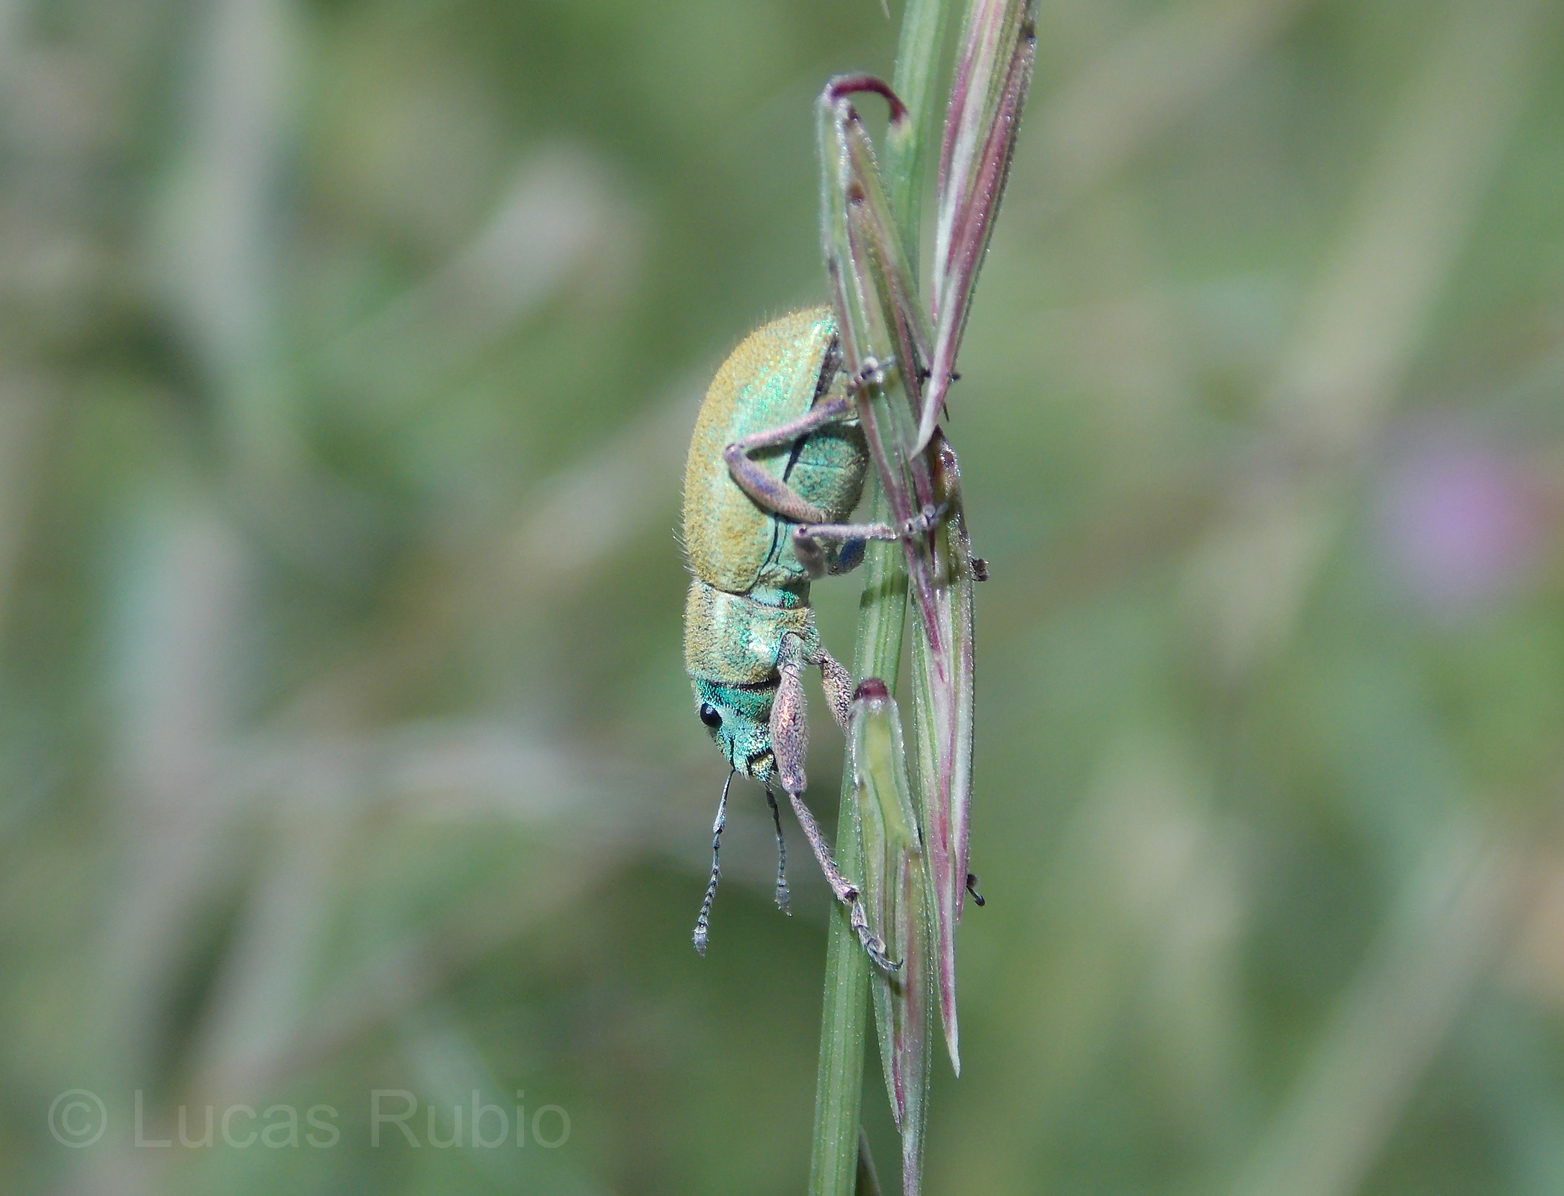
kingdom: Animalia
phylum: Arthropoda
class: Insecta
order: Coleoptera
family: Curculionidae
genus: Naupactus
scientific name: Naupactus auripes
